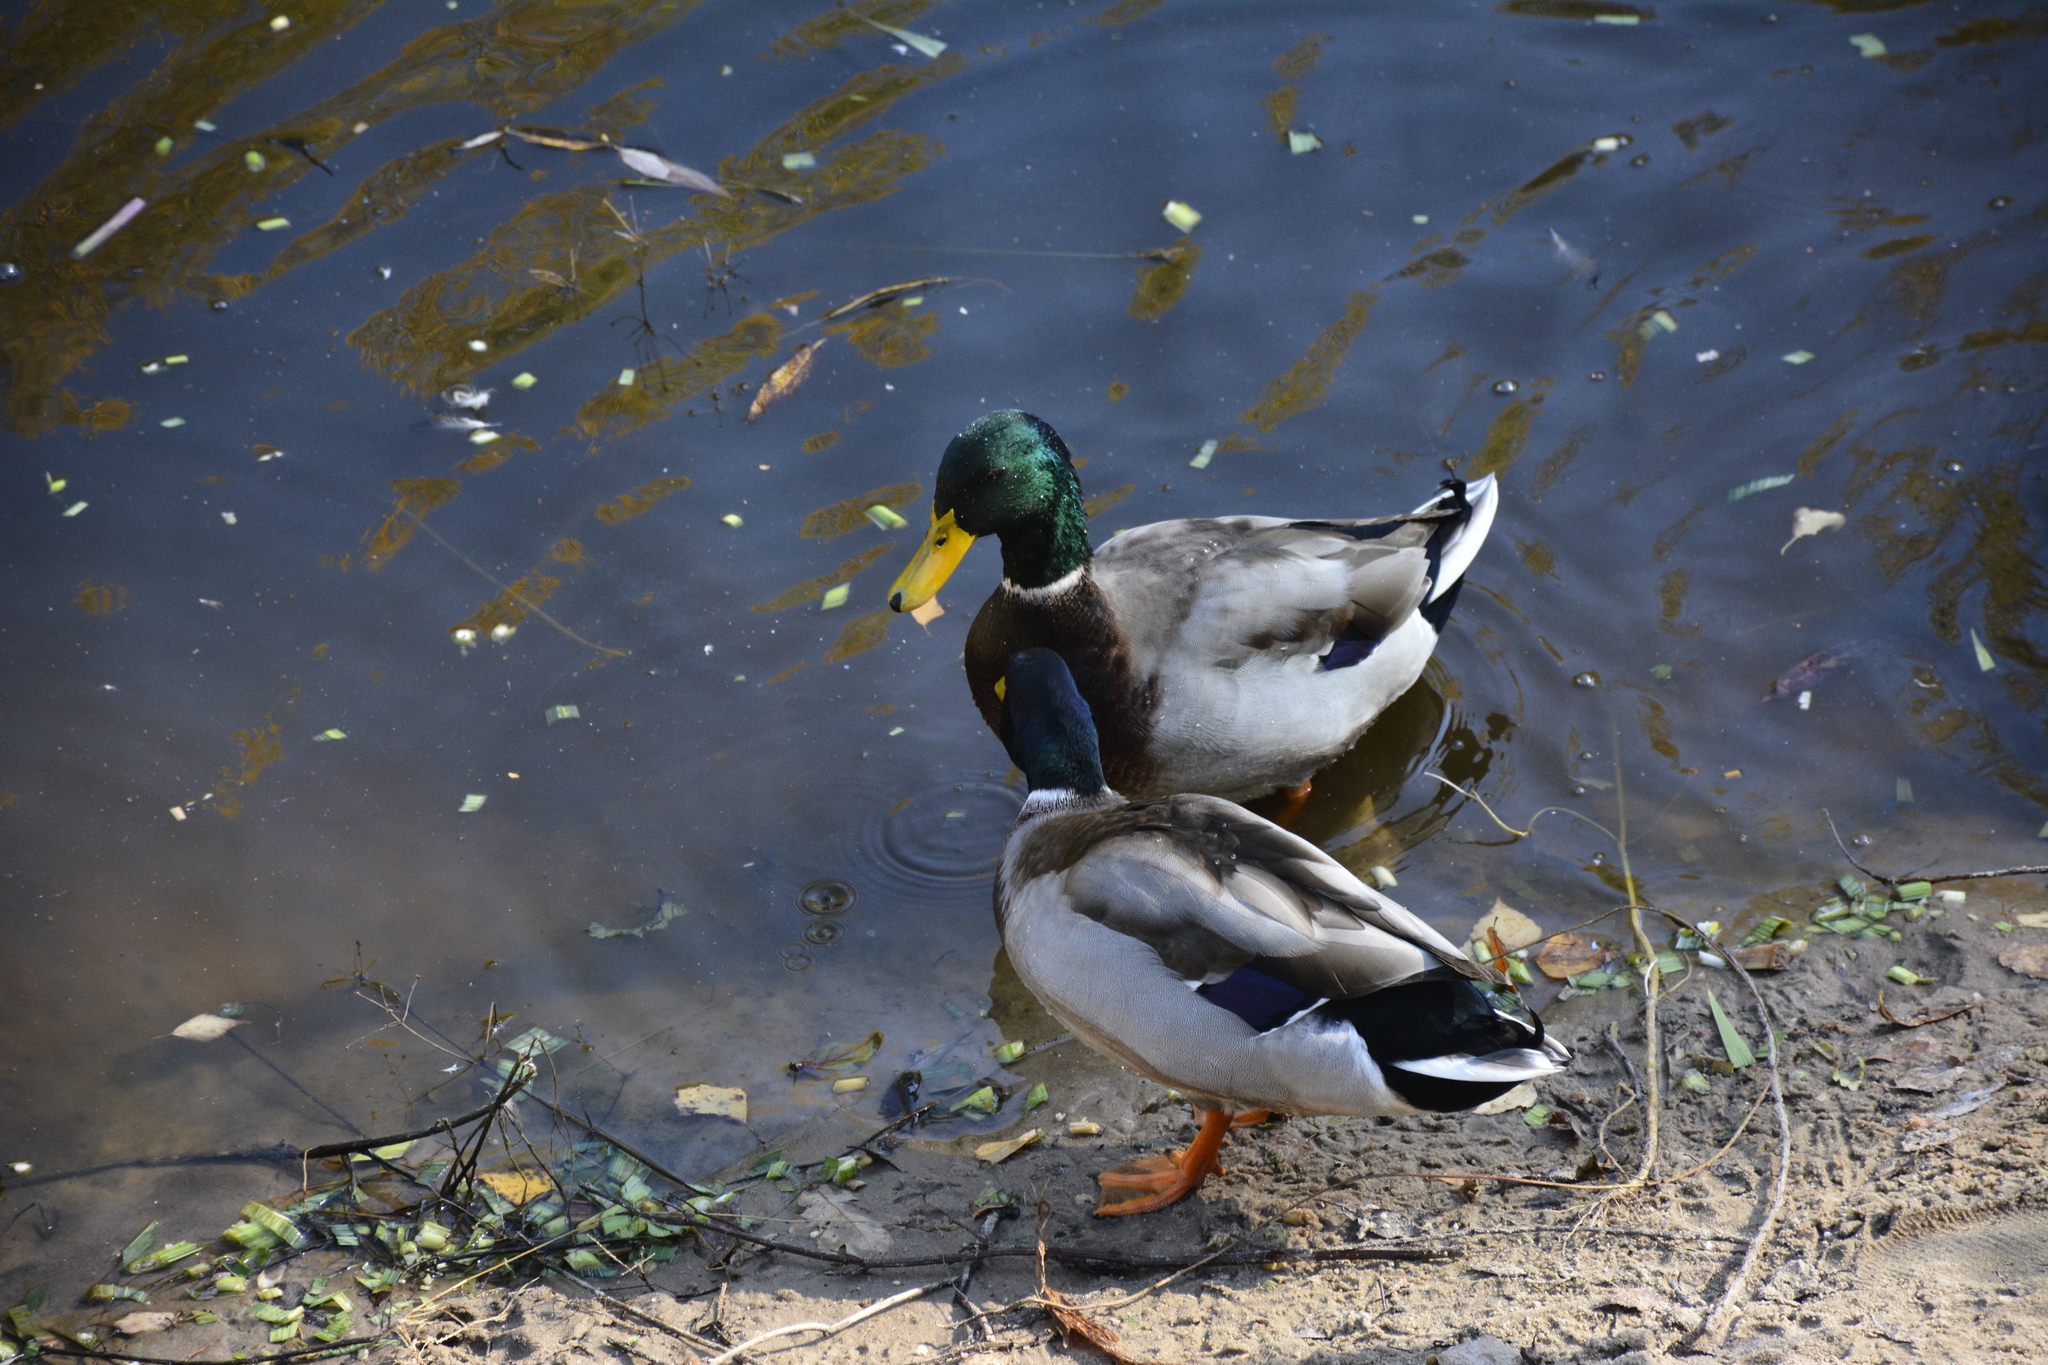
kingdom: Animalia
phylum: Chordata
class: Aves
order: Anseriformes
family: Anatidae
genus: Anas
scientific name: Anas platyrhynchos
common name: Mallard
